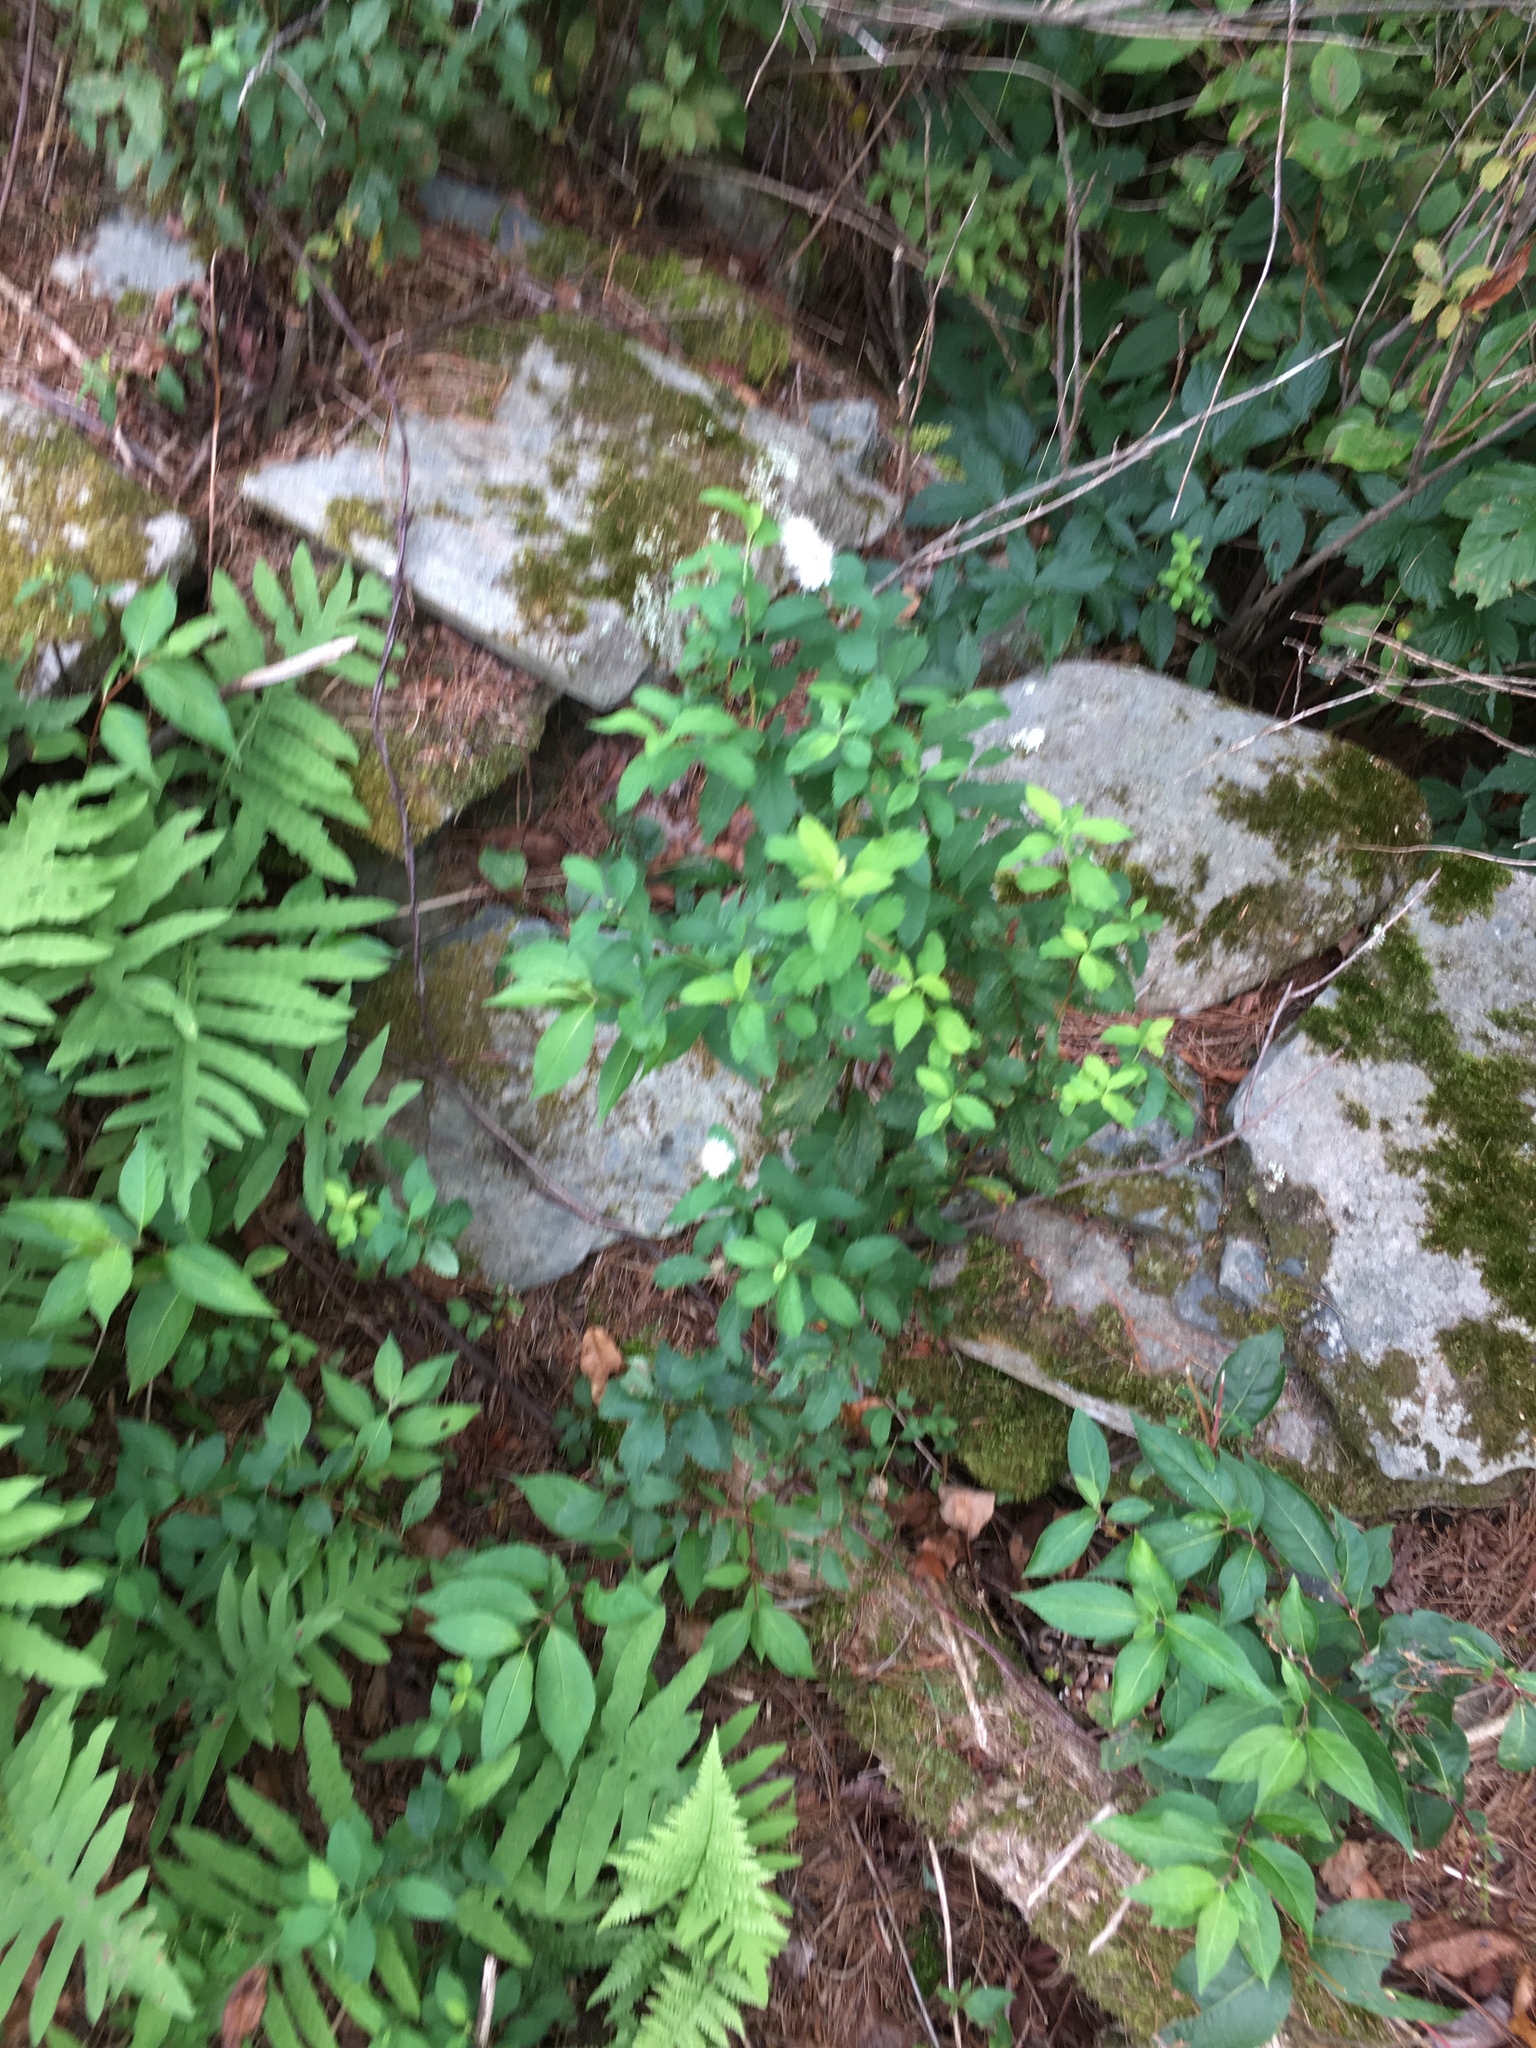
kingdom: Plantae
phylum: Tracheophyta
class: Magnoliopsida
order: Rosales
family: Rosaceae
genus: Spiraea
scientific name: Spiraea alba
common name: Pale bridewort
